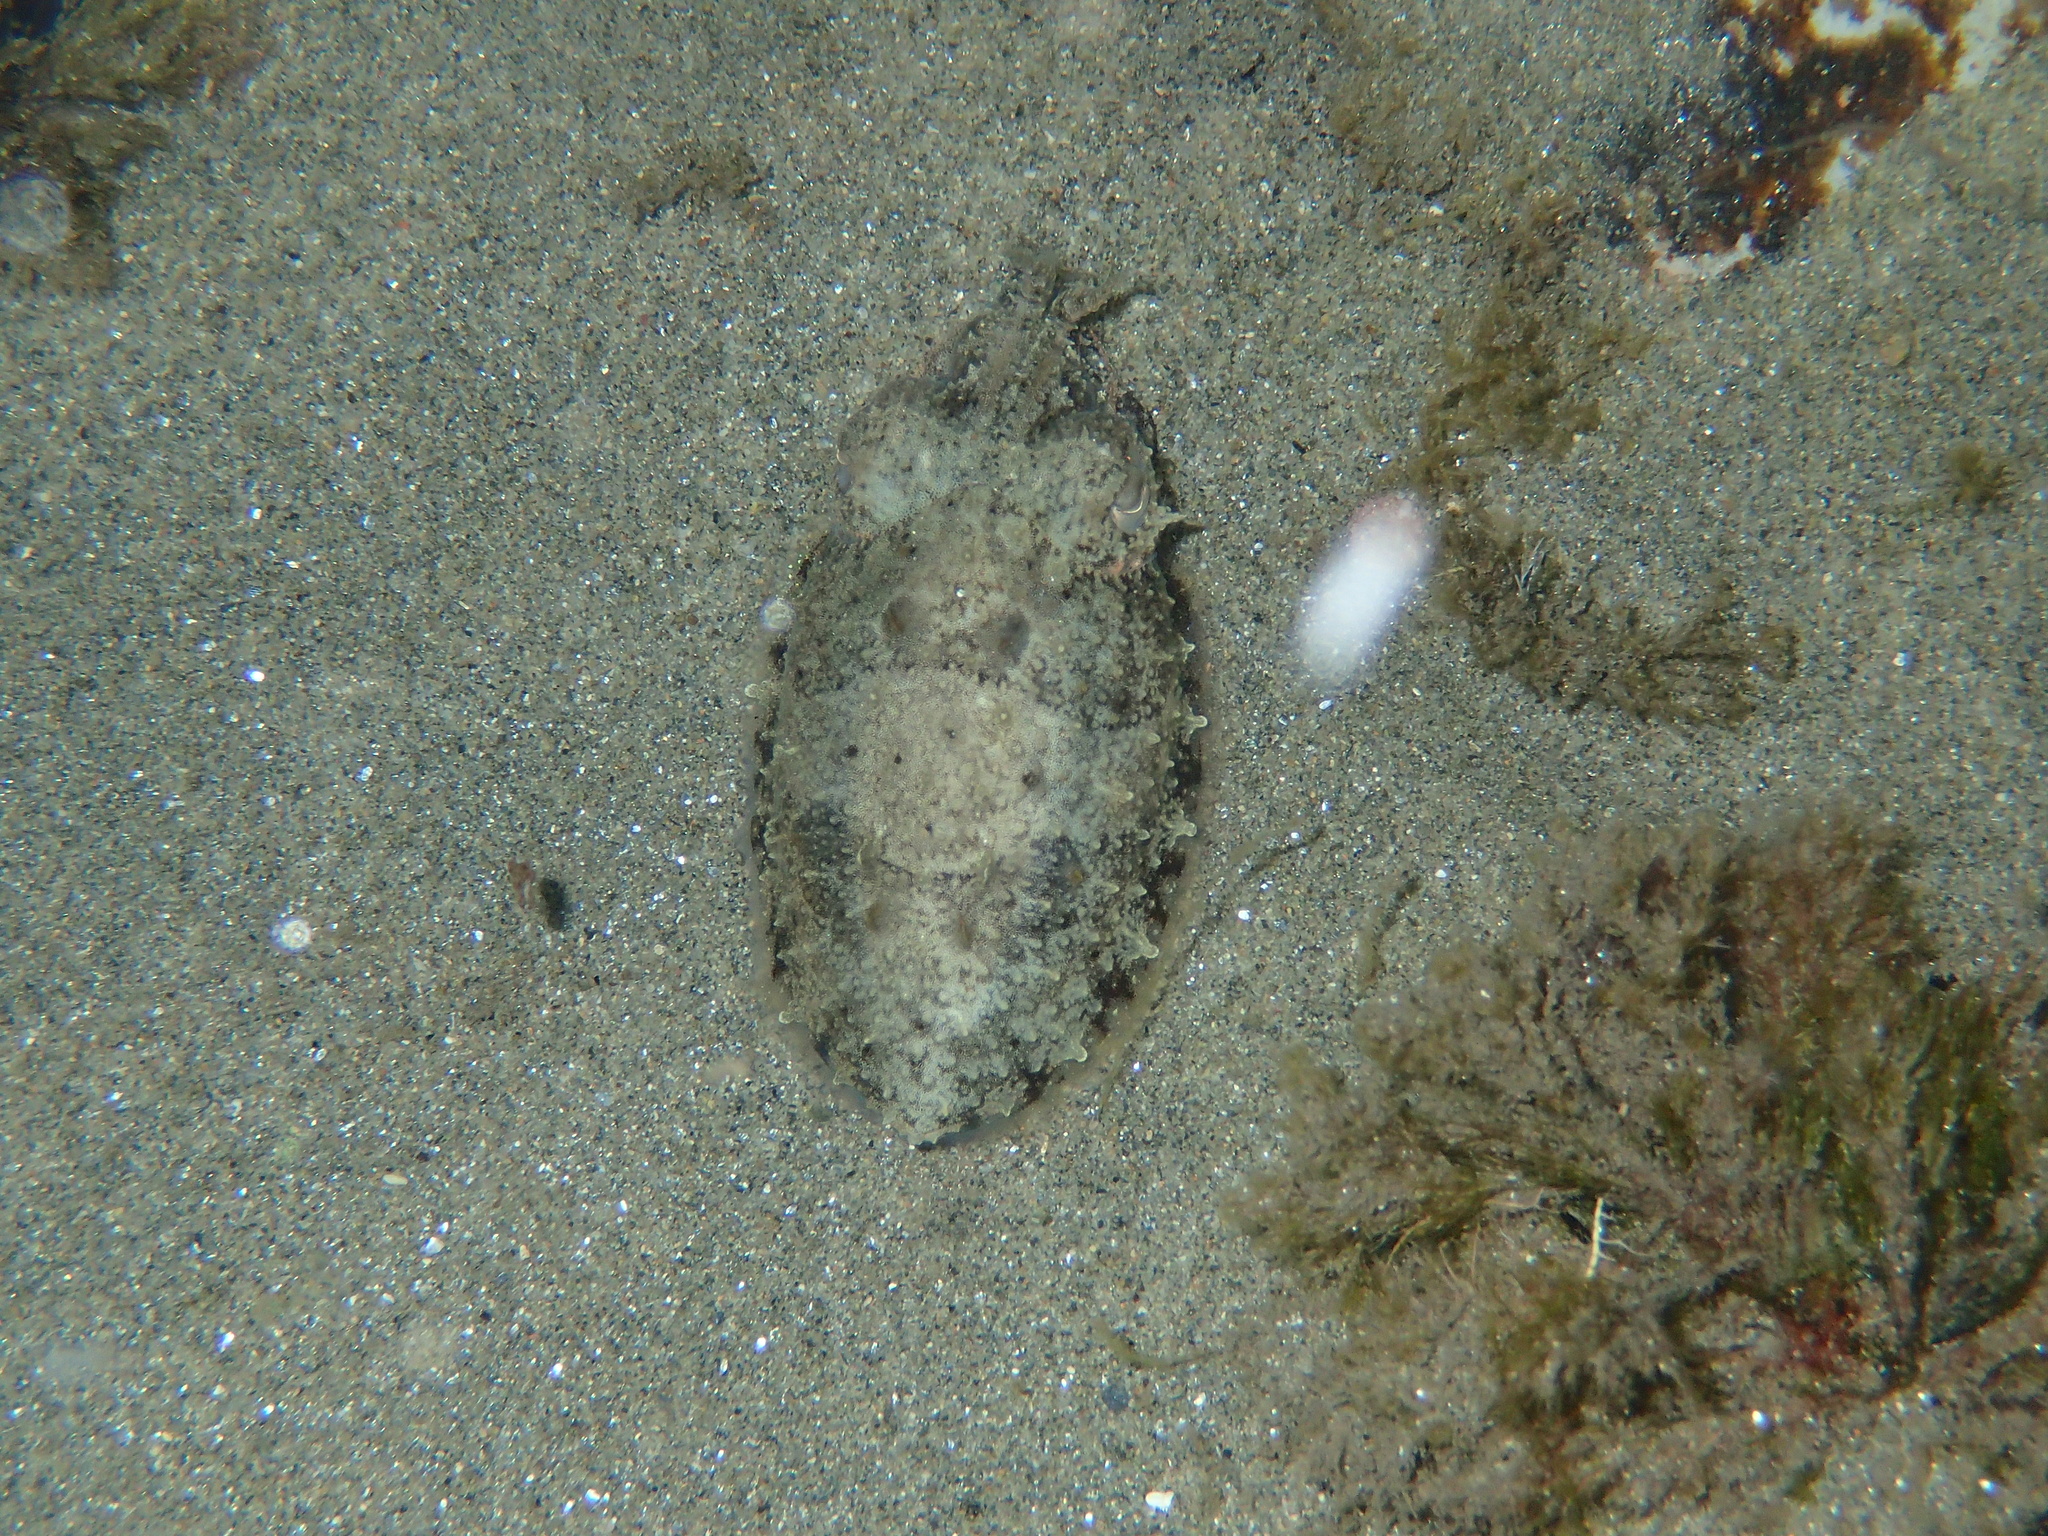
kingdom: Animalia
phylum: Mollusca
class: Cephalopoda
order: Sepiida
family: Sepiidae
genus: Sepia
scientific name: Sepia officinalis
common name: Common cuttlefish
